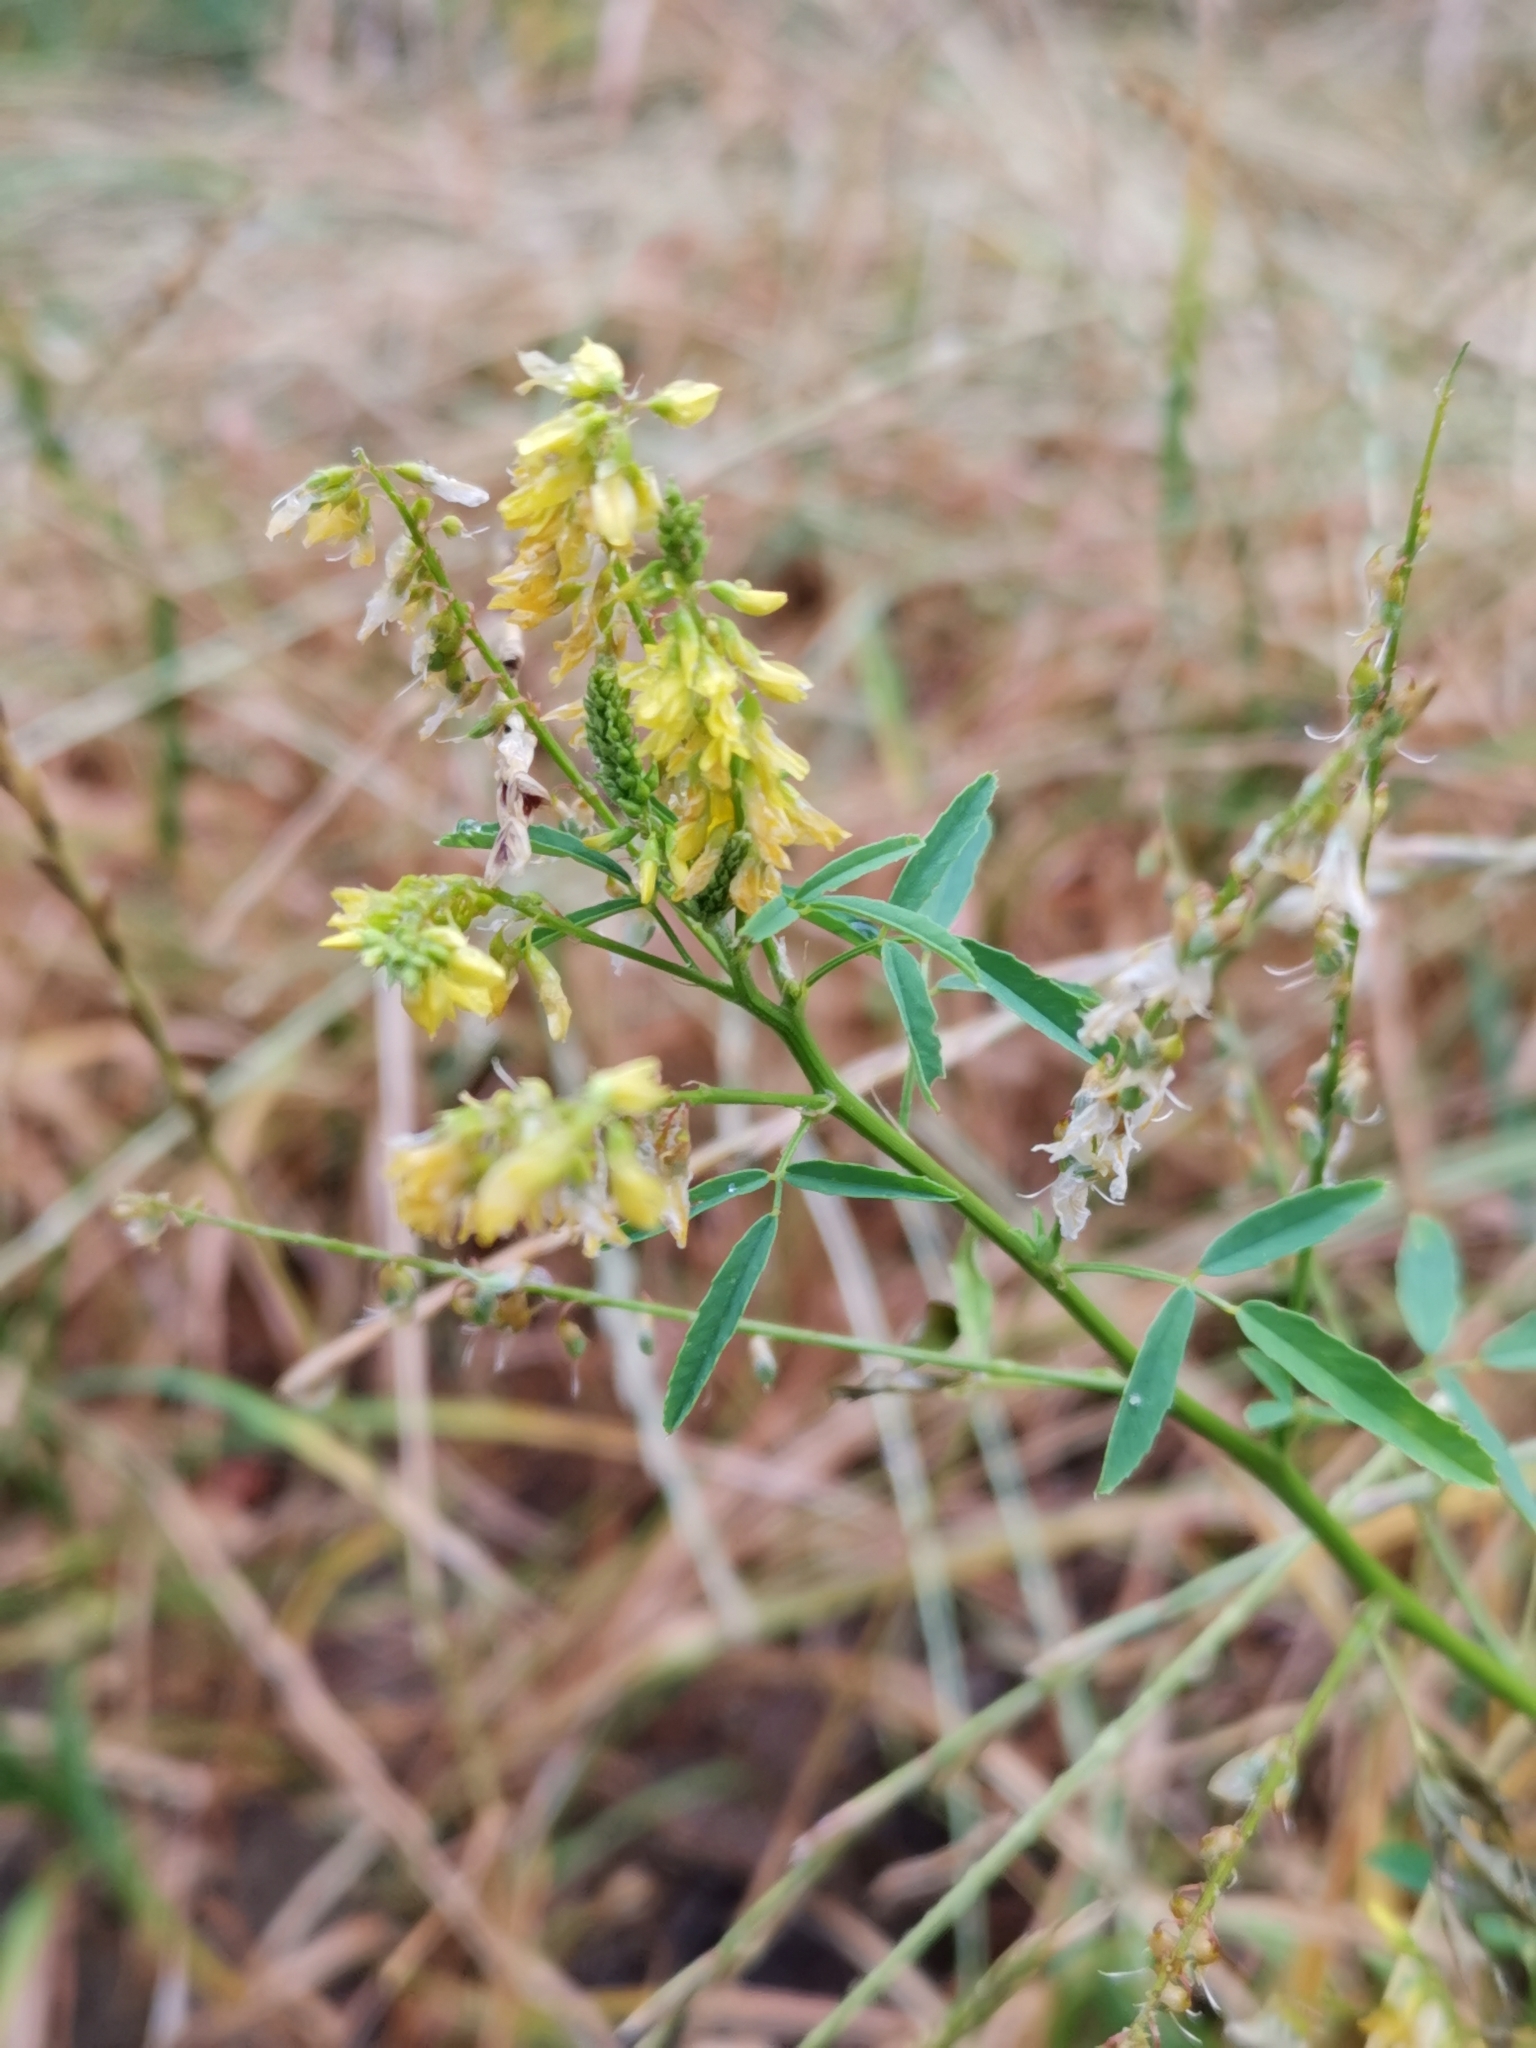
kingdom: Plantae
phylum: Tracheophyta
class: Magnoliopsida
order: Fabales
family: Fabaceae
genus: Melilotus
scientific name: Melilotus officinalis
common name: Sweetclover
